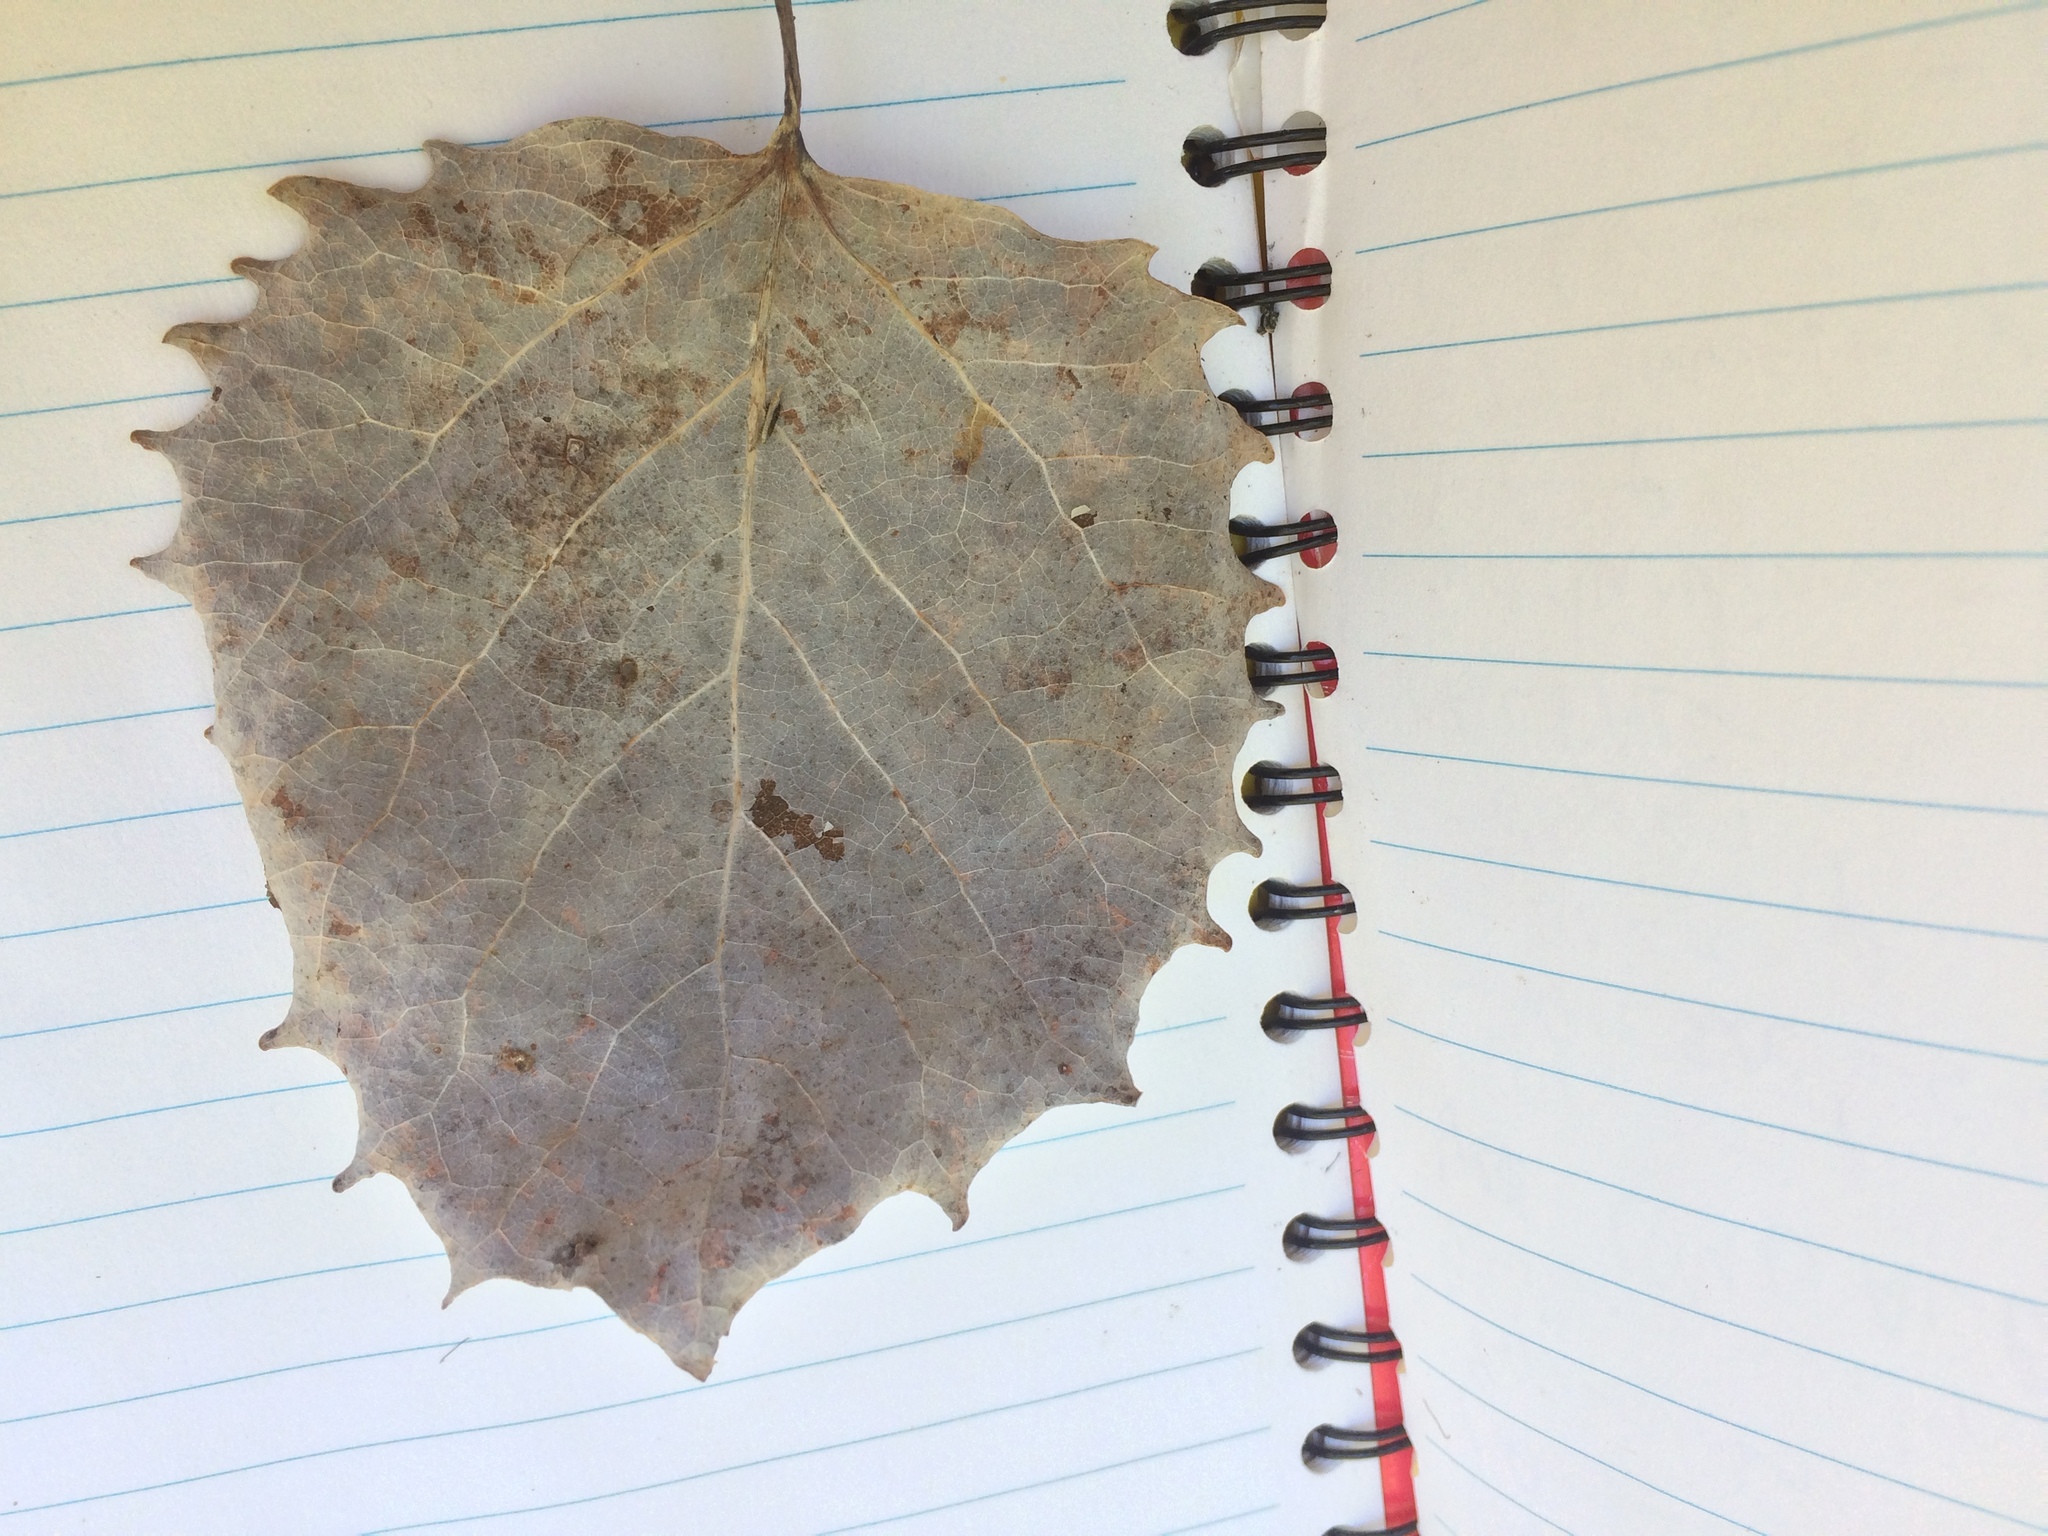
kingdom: Plantae
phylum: Tracheophyta
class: Magnoliopsida
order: Malpighiales
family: Salicaceae
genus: Populus
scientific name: Populus grandidentata
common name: Bigtooth aspen
